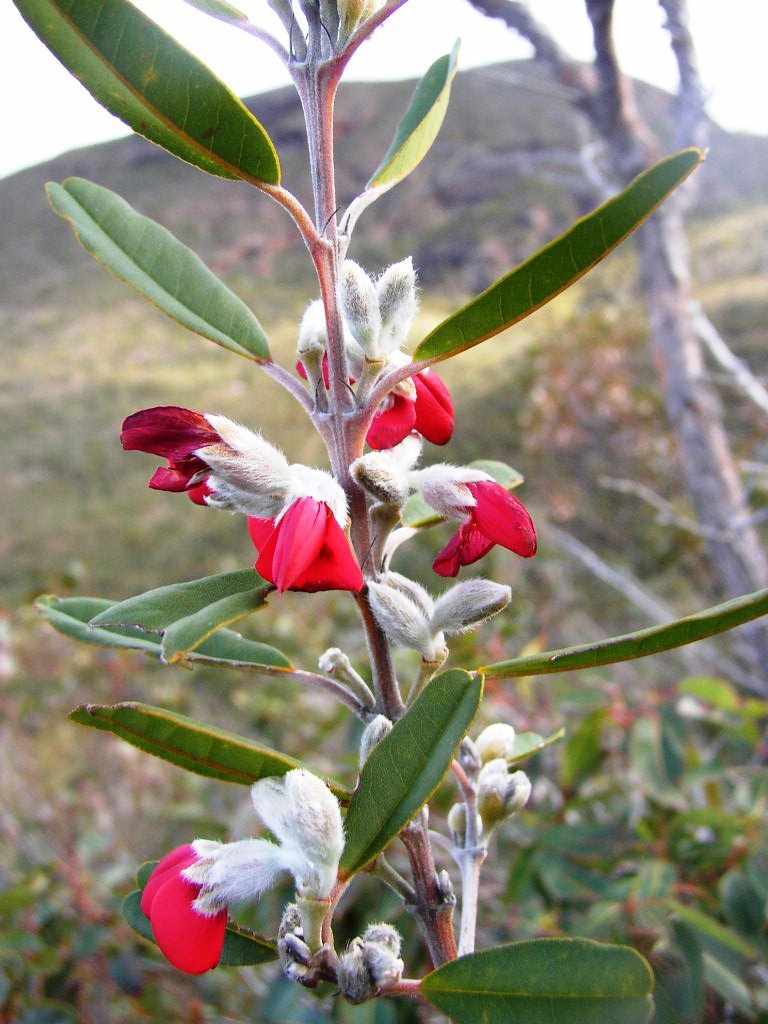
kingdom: Plantae
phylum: Tracheophyta
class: Magnoliopsida
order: Fabales
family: Fabaceae
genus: Gastrolobium
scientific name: Gastrolobium rubrum
